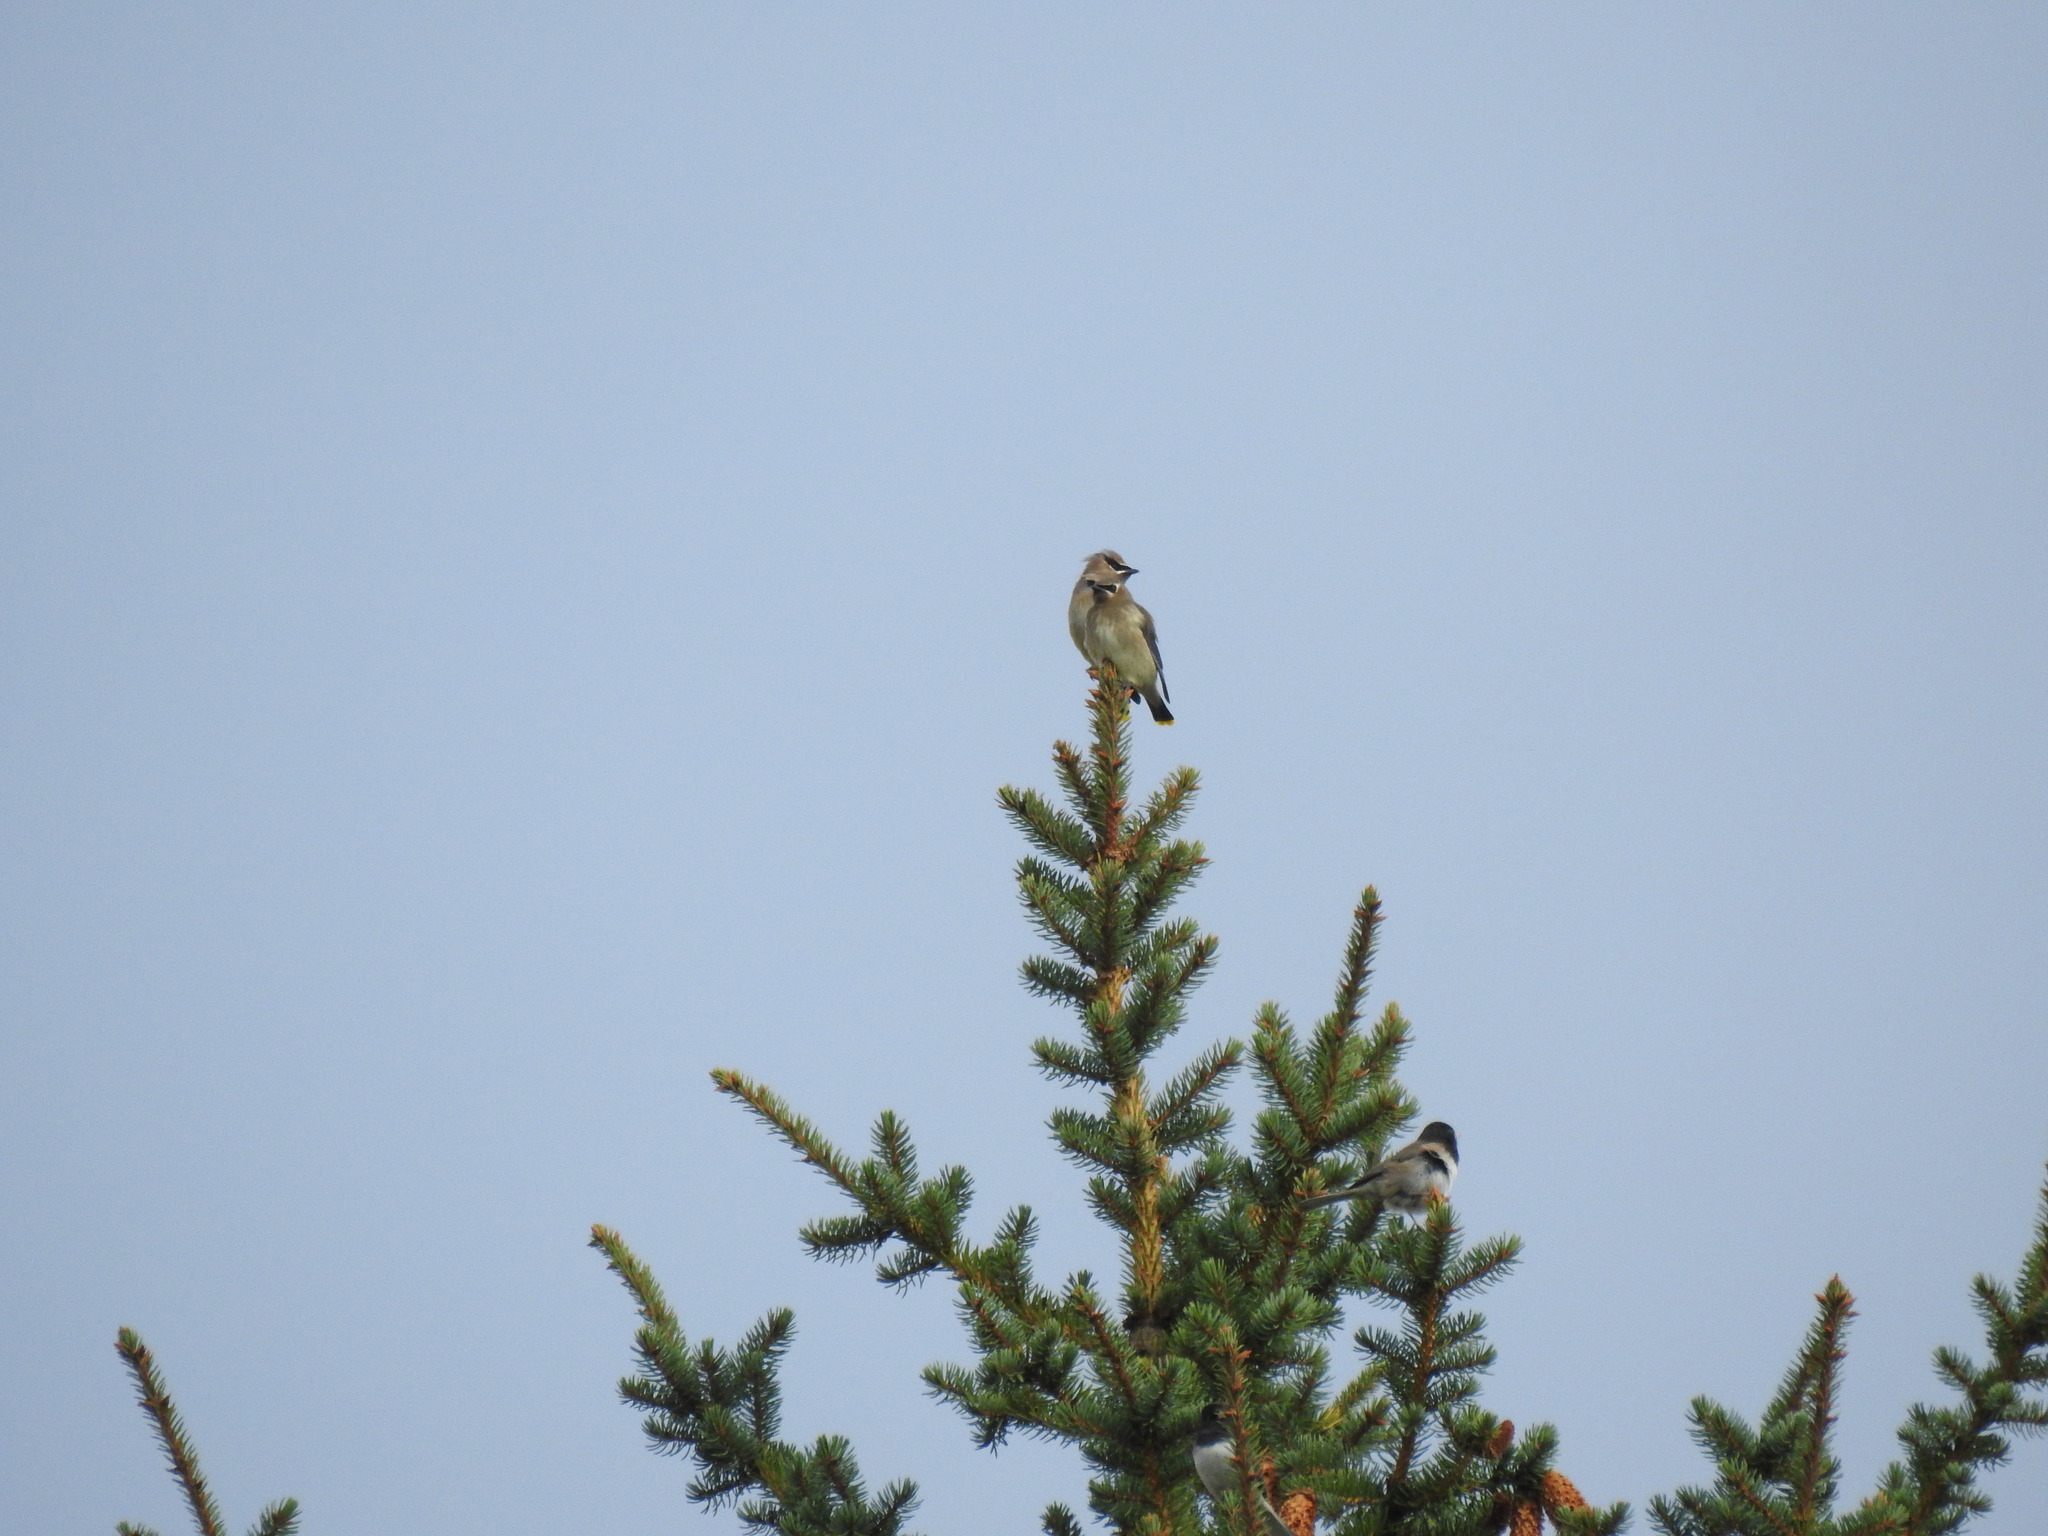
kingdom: Animalia
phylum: Chordata
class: Aves
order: Passeriformes
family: Passerellidae
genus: Junco
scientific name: Junco hyemalis
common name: Dark-eyed junco
